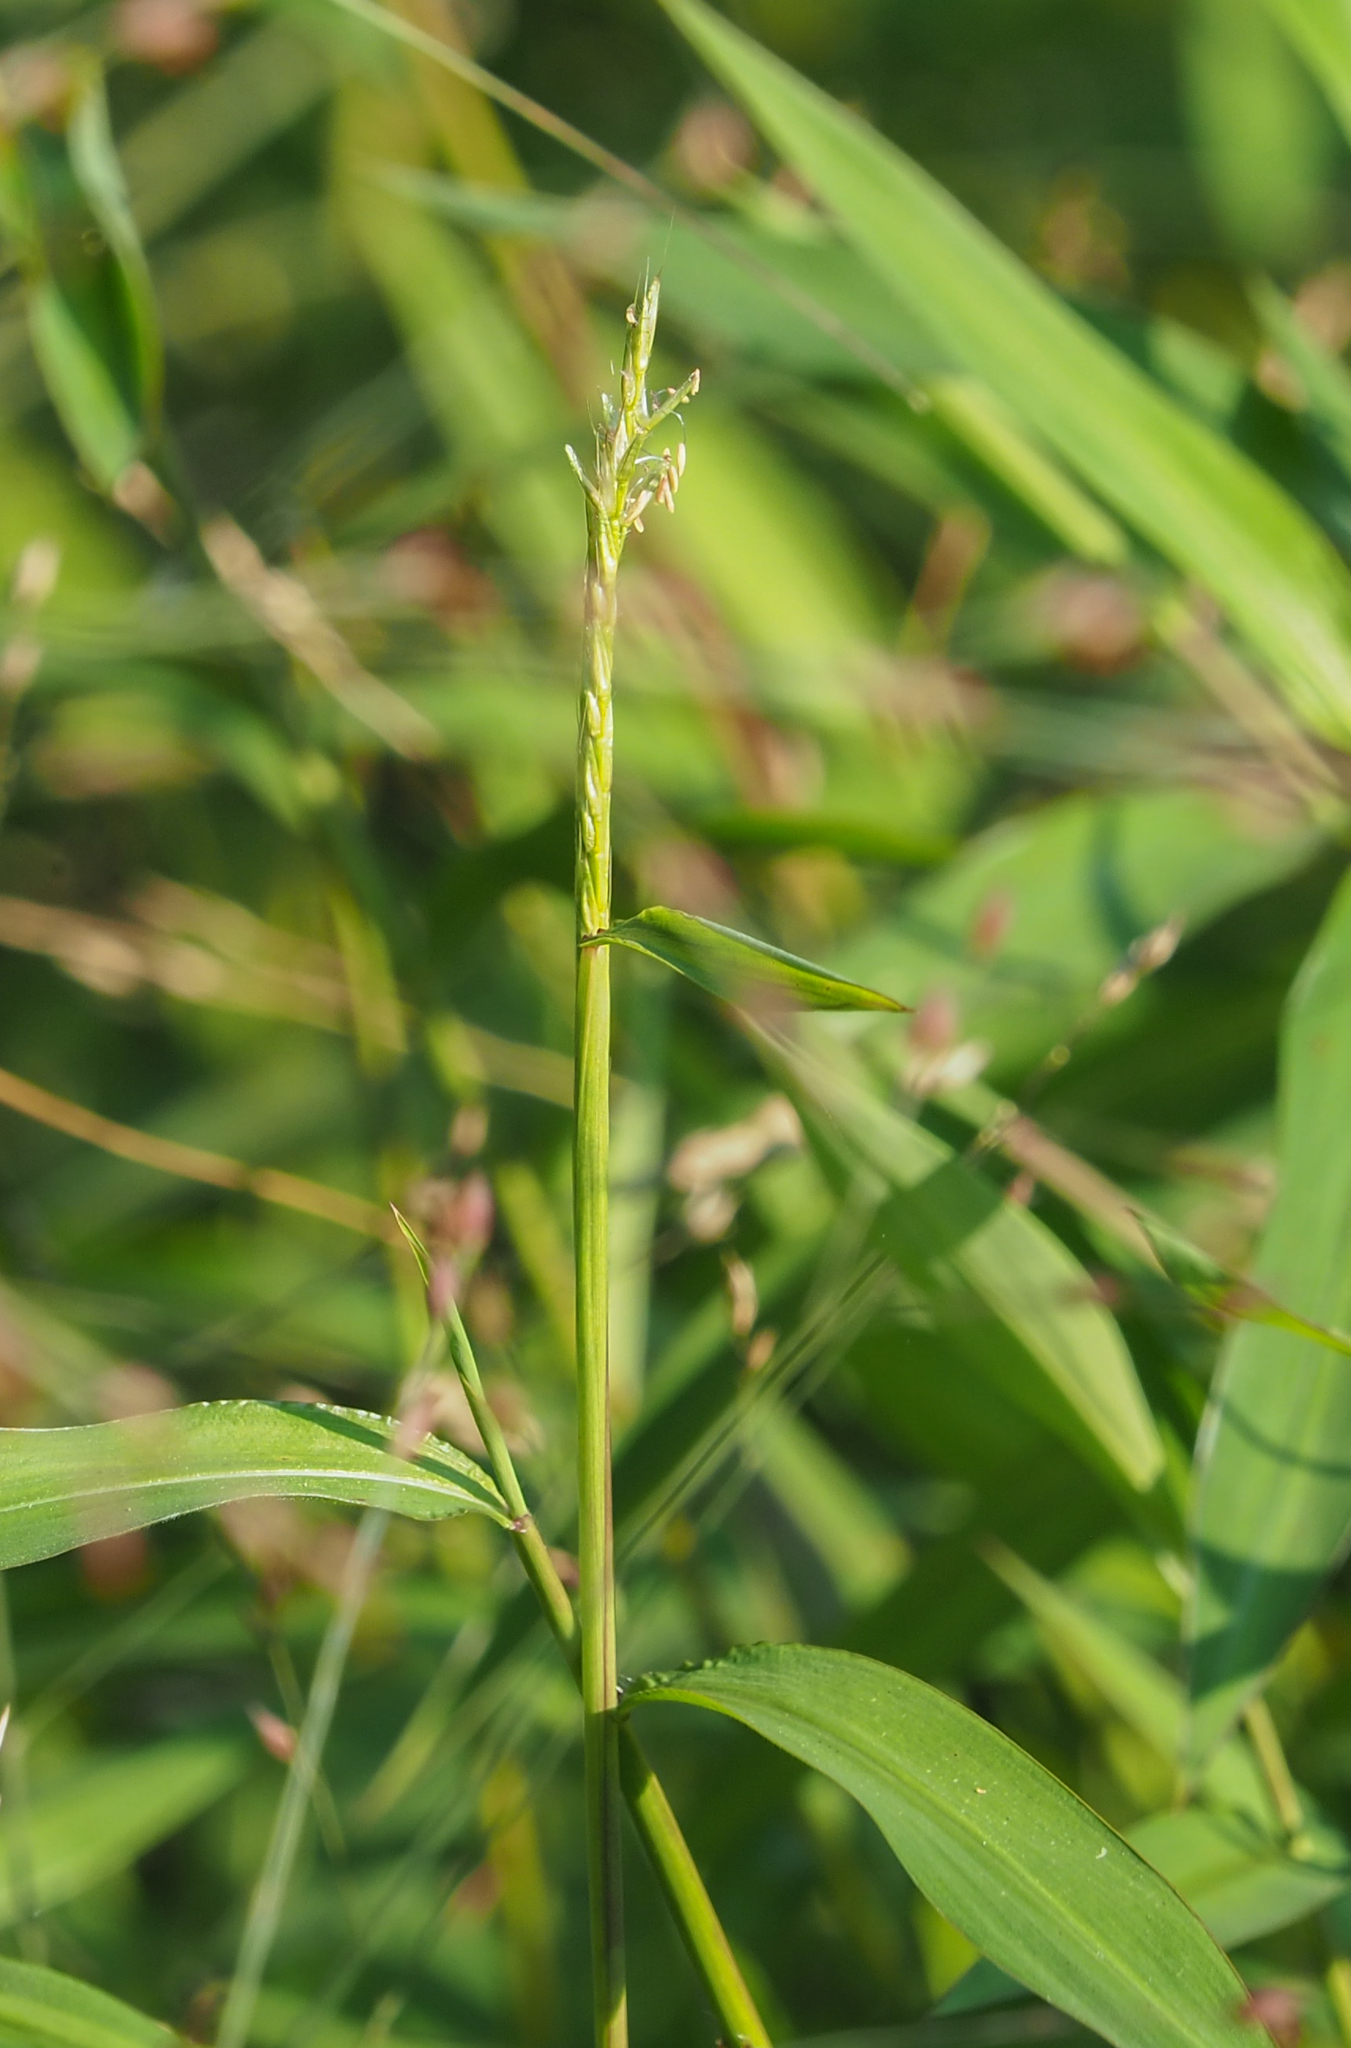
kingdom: Plantae
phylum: Tracheophyta
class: Liliopsida
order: Poales
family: Poaceae
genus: Microstegium
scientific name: Microstegium vimineum
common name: Japanese stiltgrass
